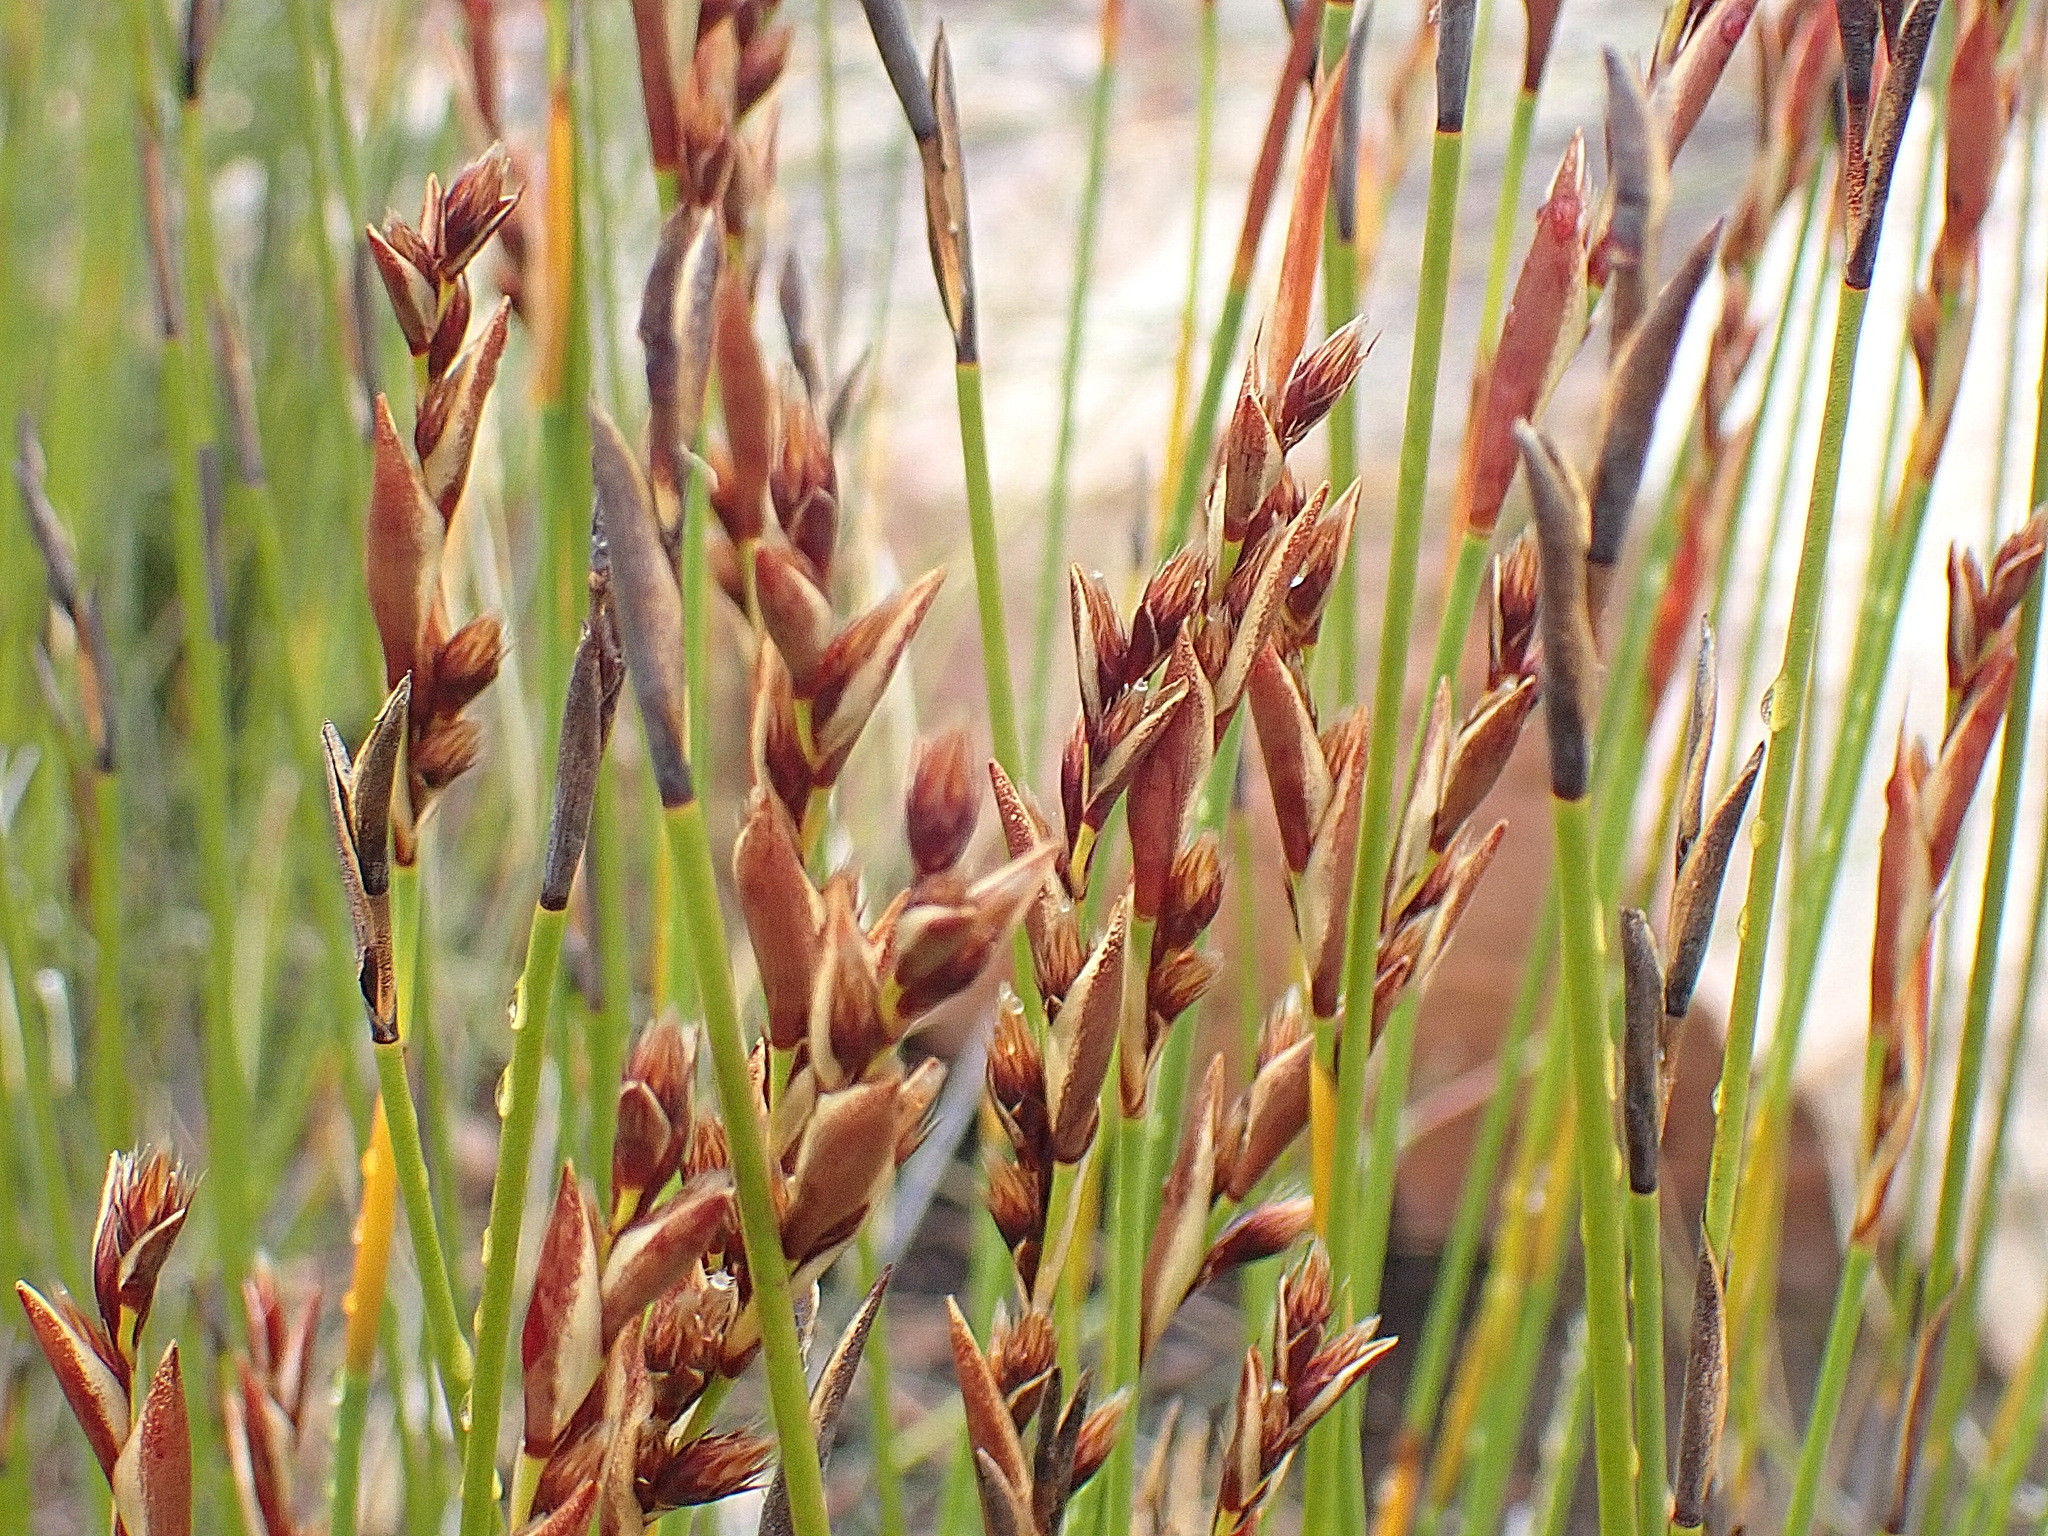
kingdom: Plantae
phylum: Tracheophyta
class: Liliopsida
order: Poales
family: Restionaceae
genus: Hypodiscus
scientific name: Hypodiscus aristatus
